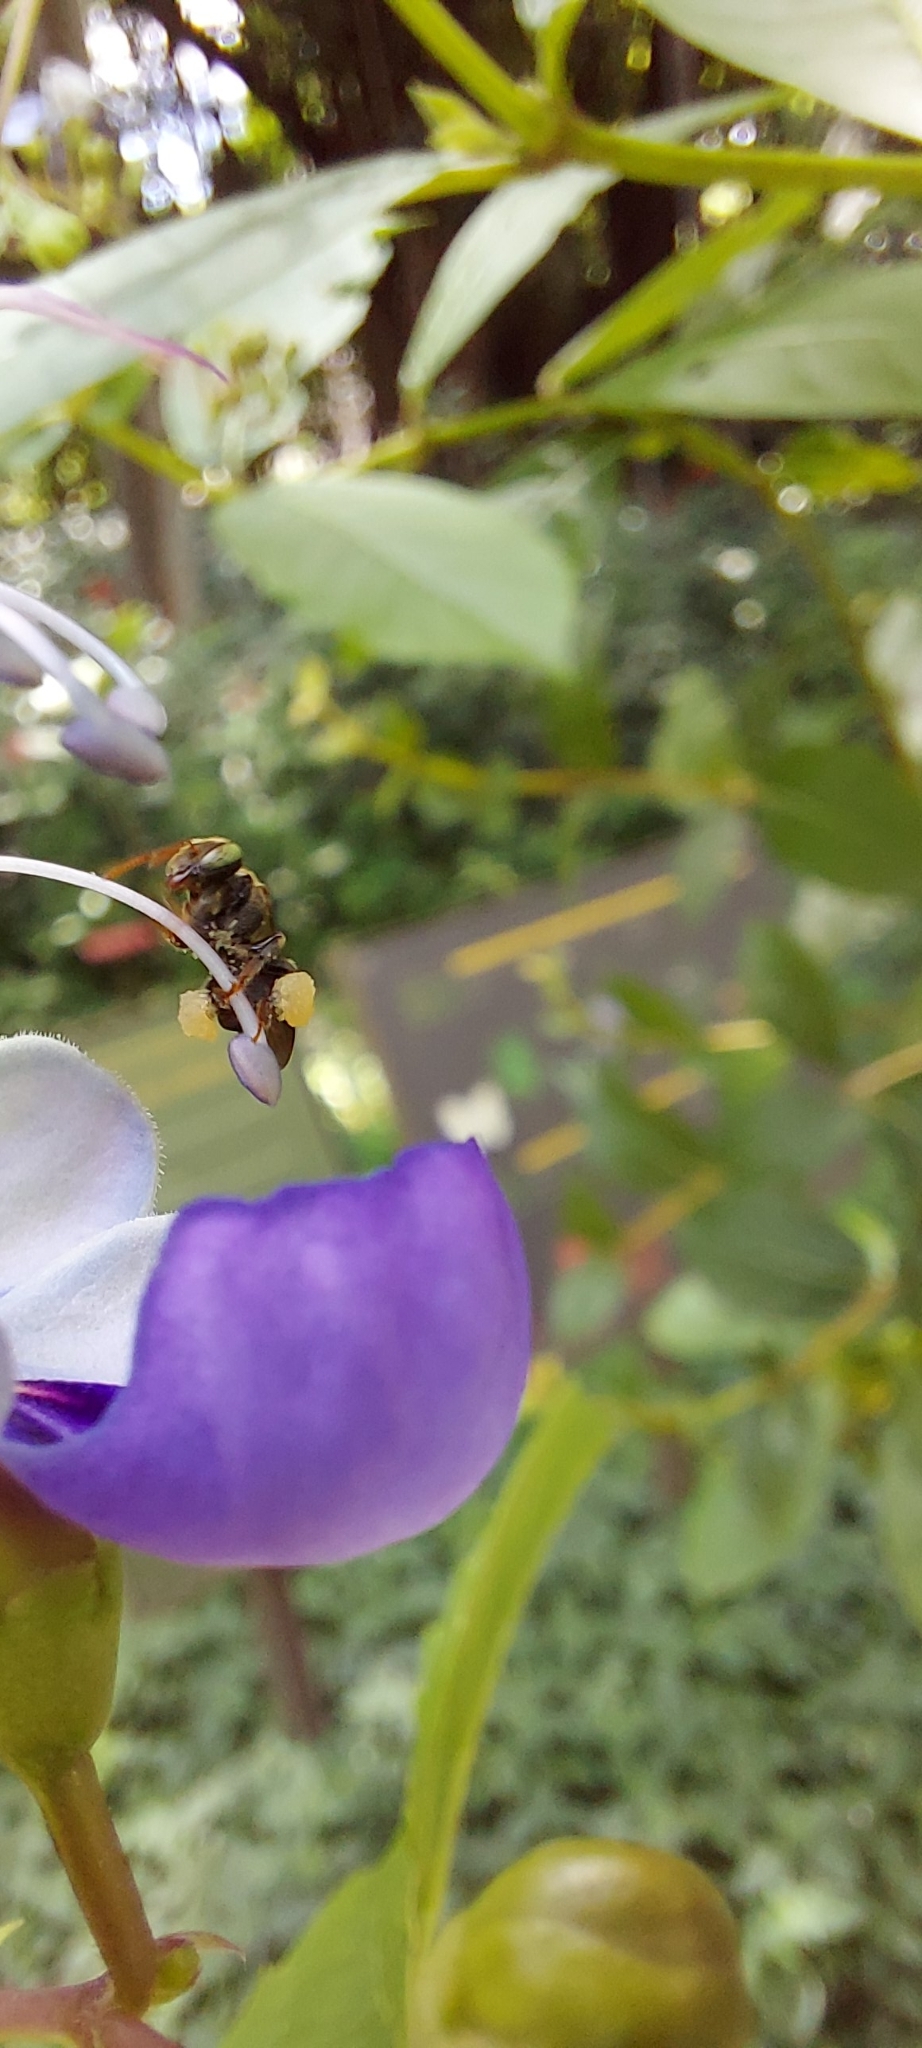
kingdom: Animalia
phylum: Arthropoda
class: Insecta
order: Hymenoptera
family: Apidae
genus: Nannotrigona
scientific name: Nannotrigona testaceicornis
